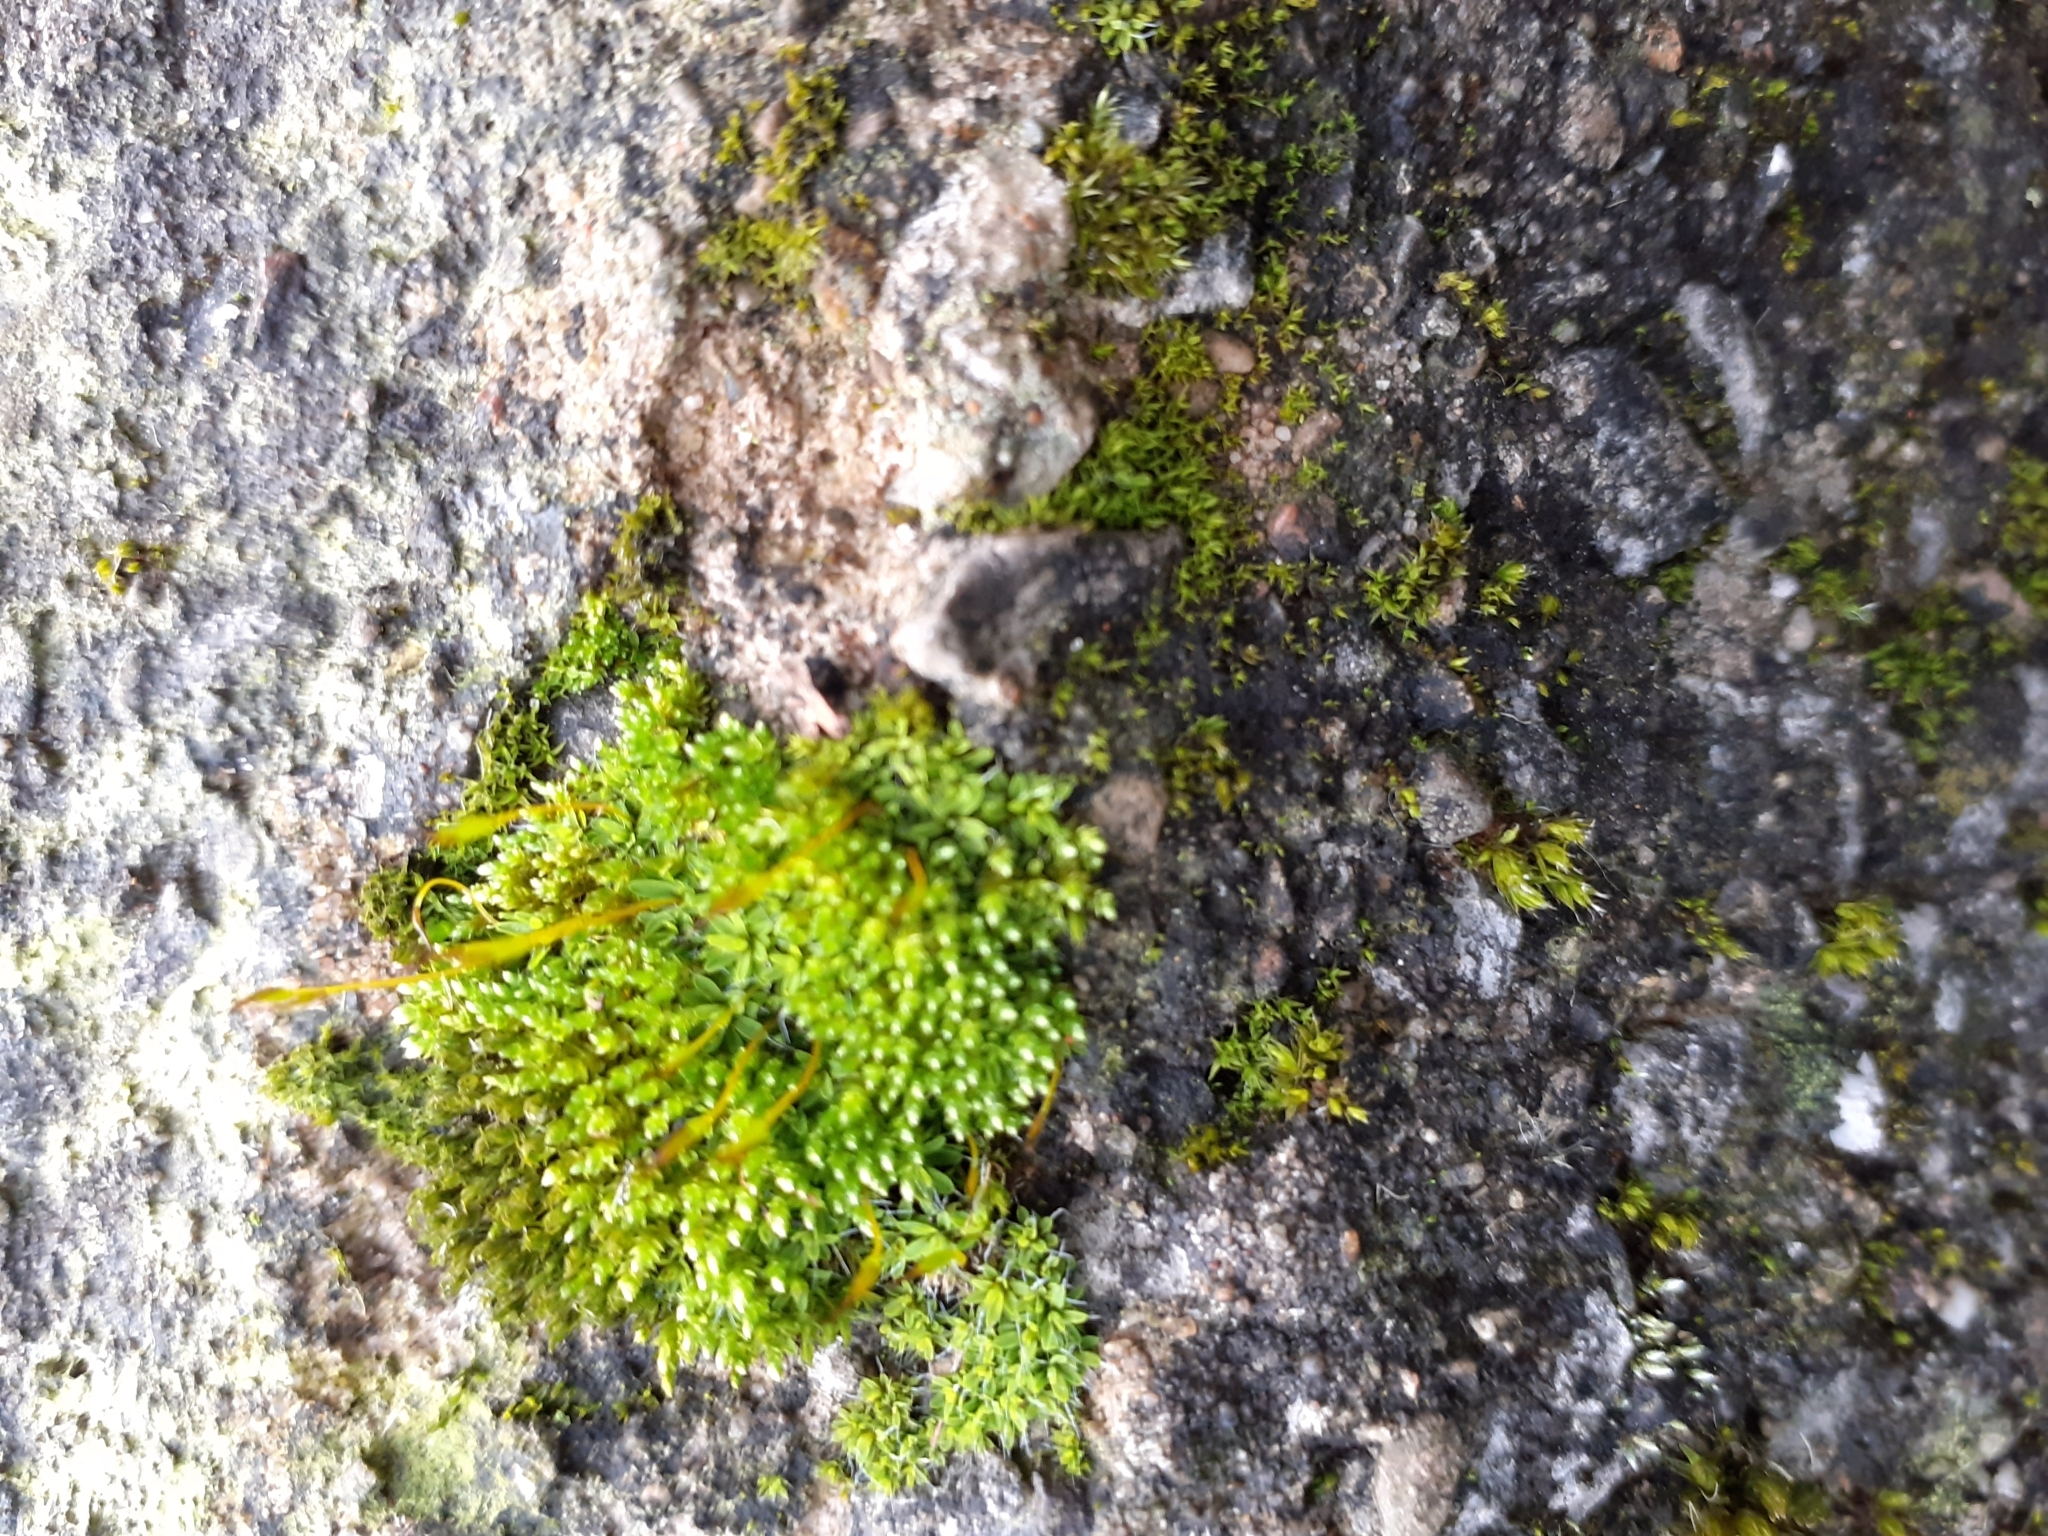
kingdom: Plantae
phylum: Bryophyta
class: Bryopsida
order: Bryales
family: Bryaceae
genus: Bryum
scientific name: Bryum argenteum
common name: Silver-moss
